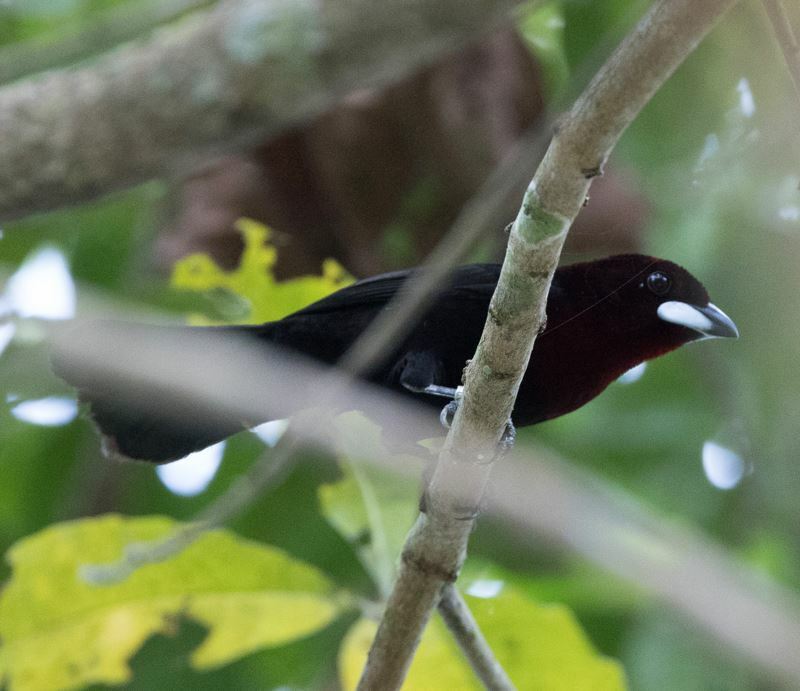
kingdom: Animalia
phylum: Chordata
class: Aves
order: Passeriformes
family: Thraupidae
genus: Ramphocelus
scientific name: Ramphocelus carbo
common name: Silver-beaked tanager
